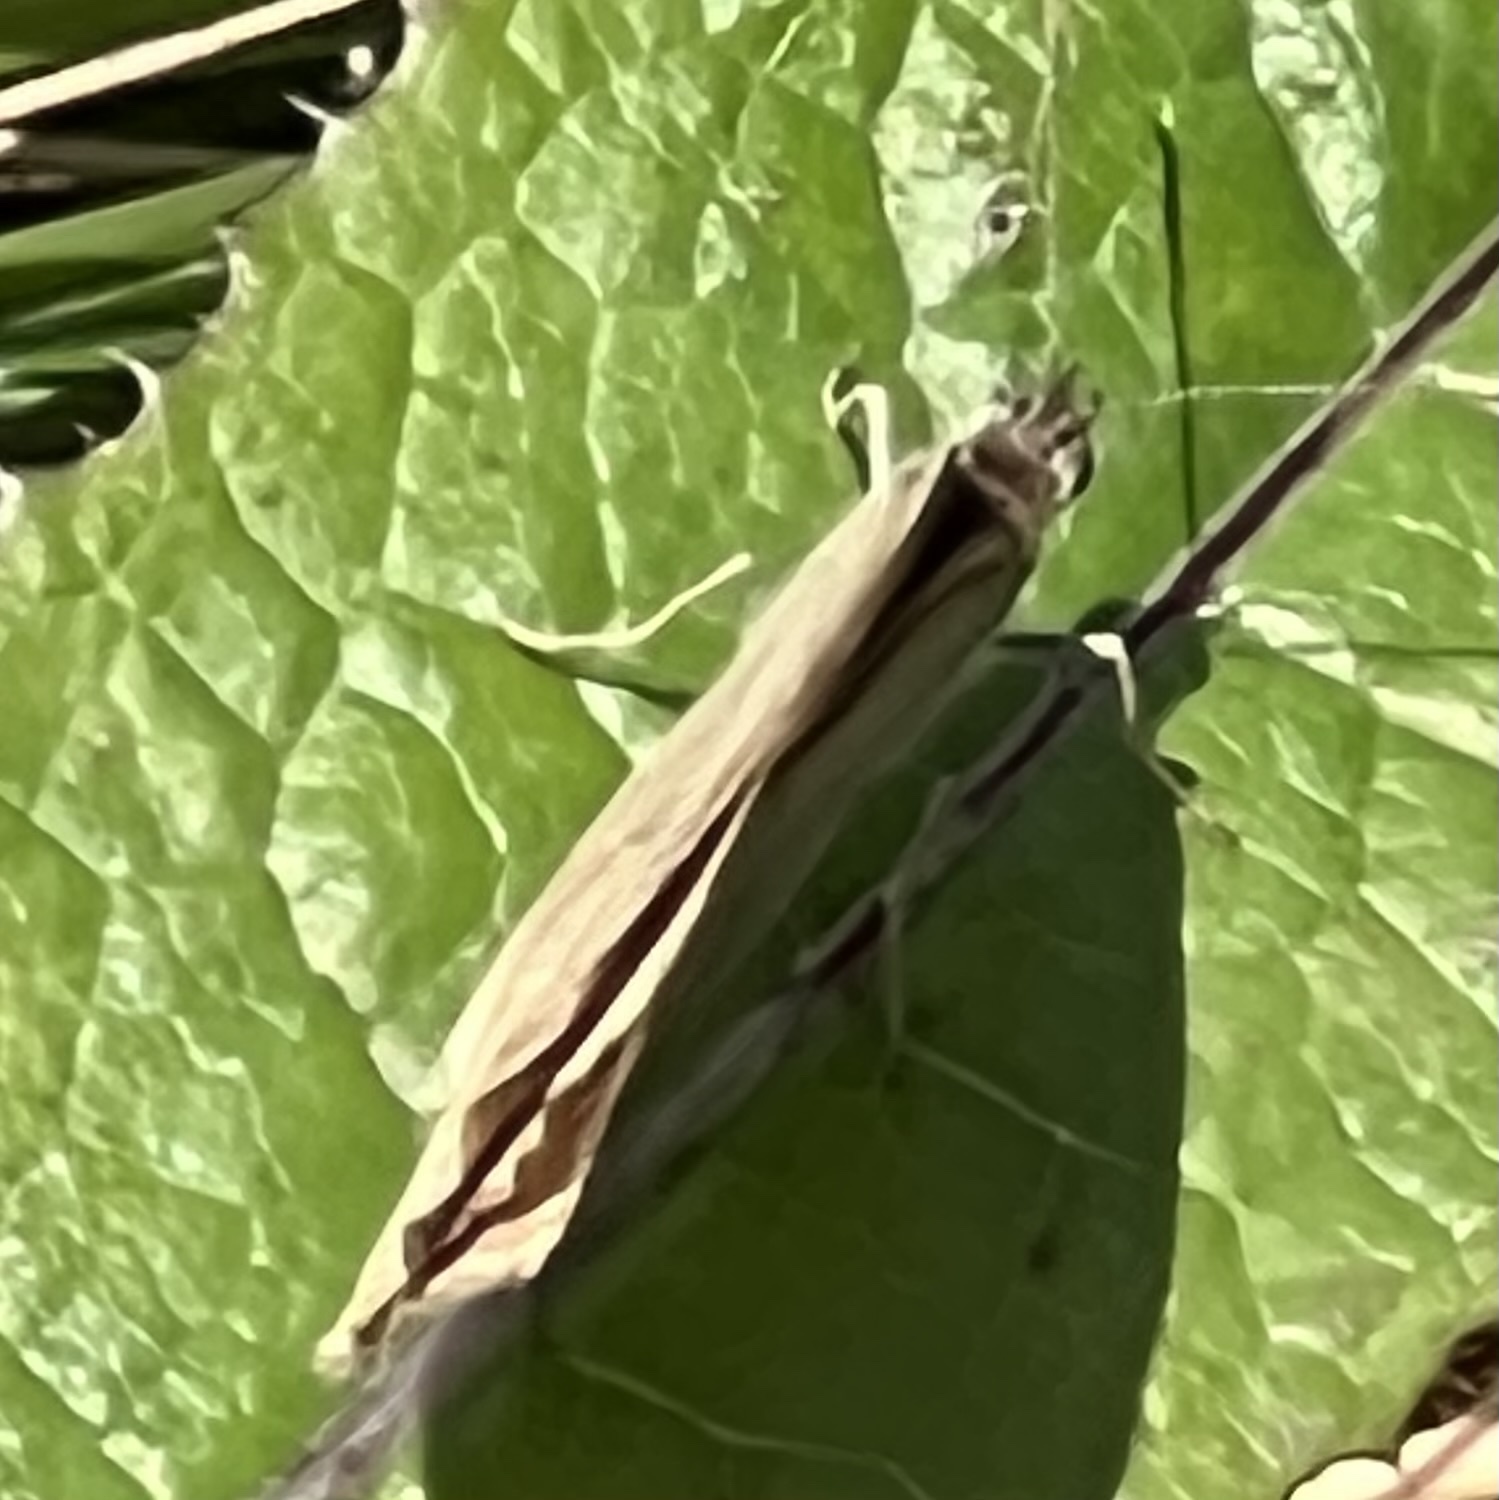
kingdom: Animalia
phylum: Arthropoda
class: Insecta
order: Lepidoptera
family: Nymphalidae
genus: Lethe
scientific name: Lethe eurydice
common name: Eyed brown
